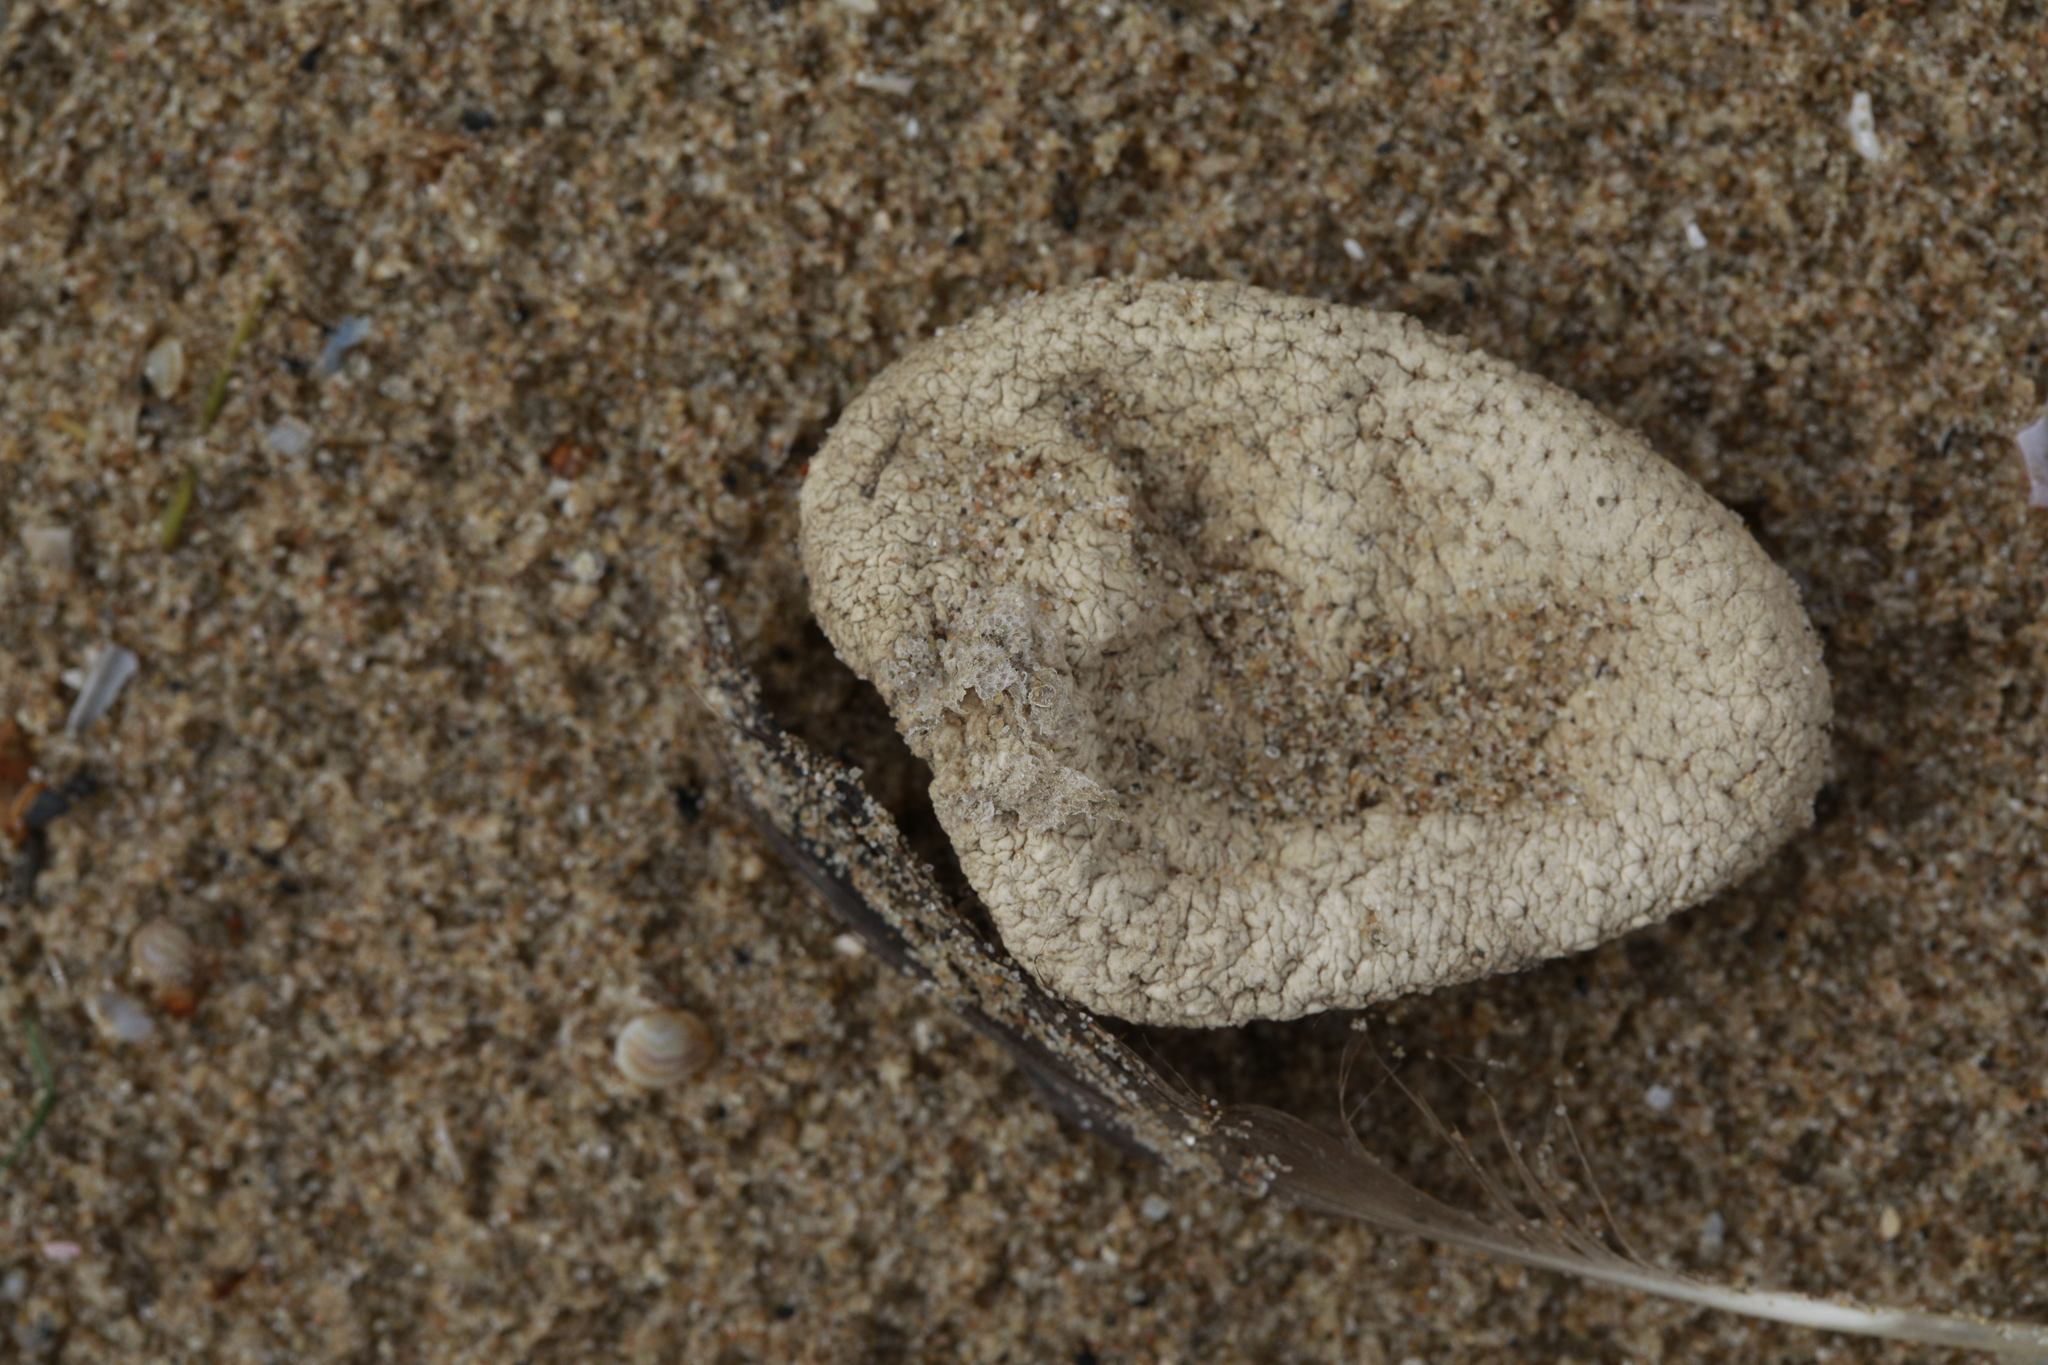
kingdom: Animalia
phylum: Cnidaria
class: Anthozoa
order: Malacalcyonacea
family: Alcyoniidae
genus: Alcyonium
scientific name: Alcyonium digitatum
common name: Dead man's fingers
